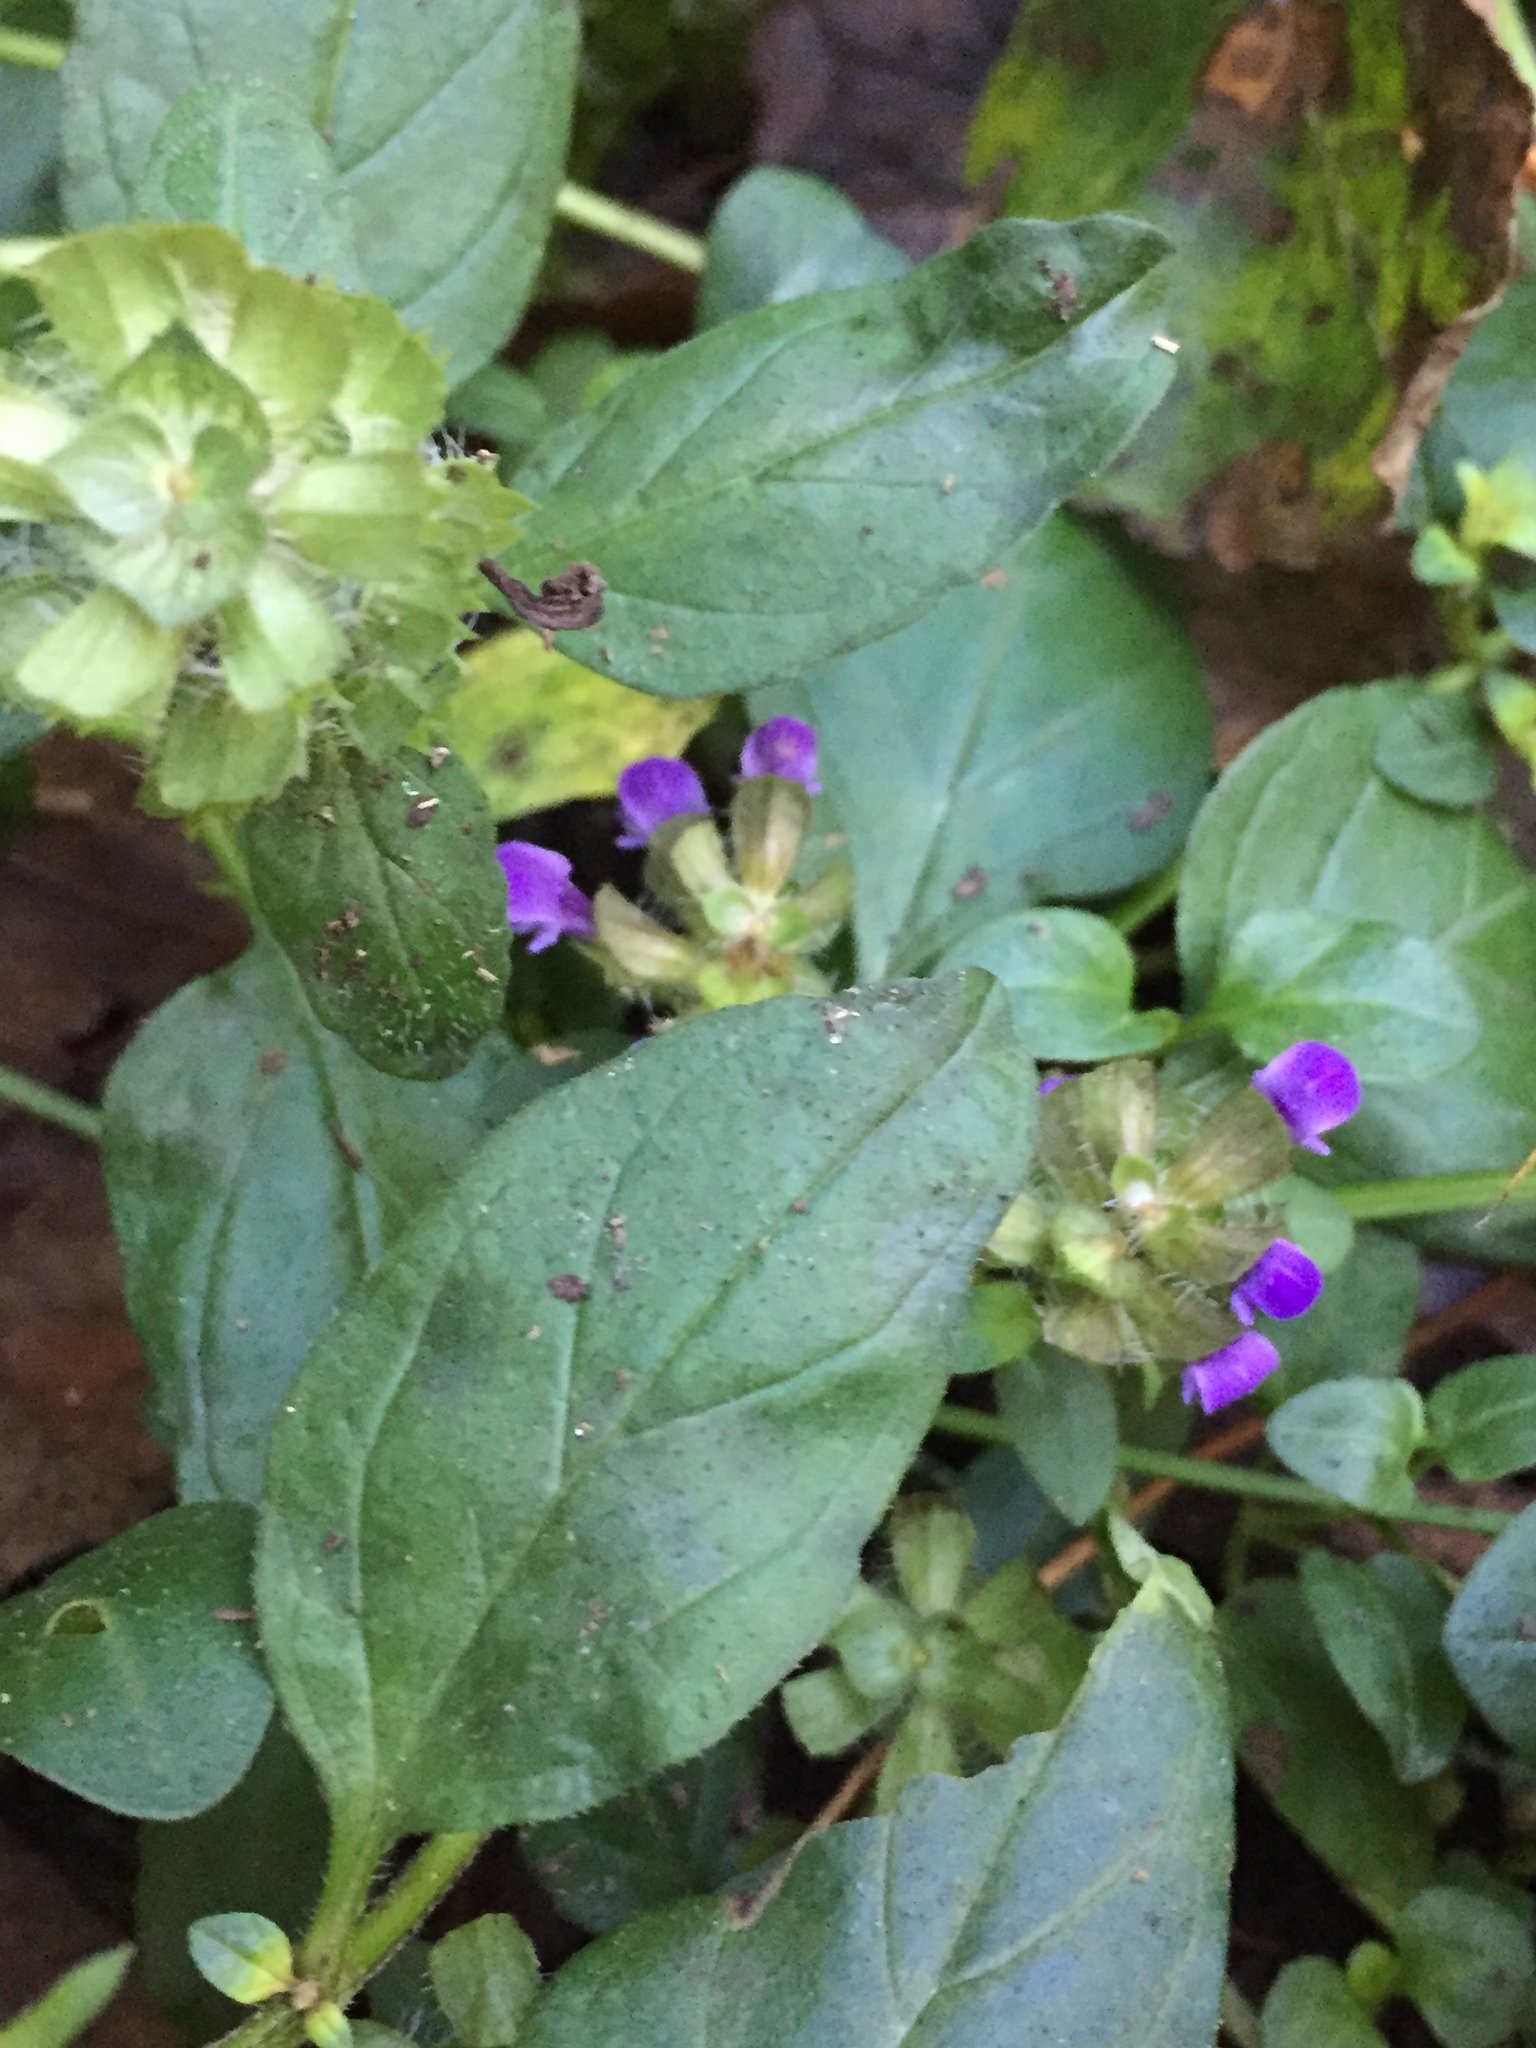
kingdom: Plantae
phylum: Tracheophyta
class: Magnoliopsida
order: Lamiales
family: Lamiaceae
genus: Prunella
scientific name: Prunella vulgaris
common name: Heal-all
